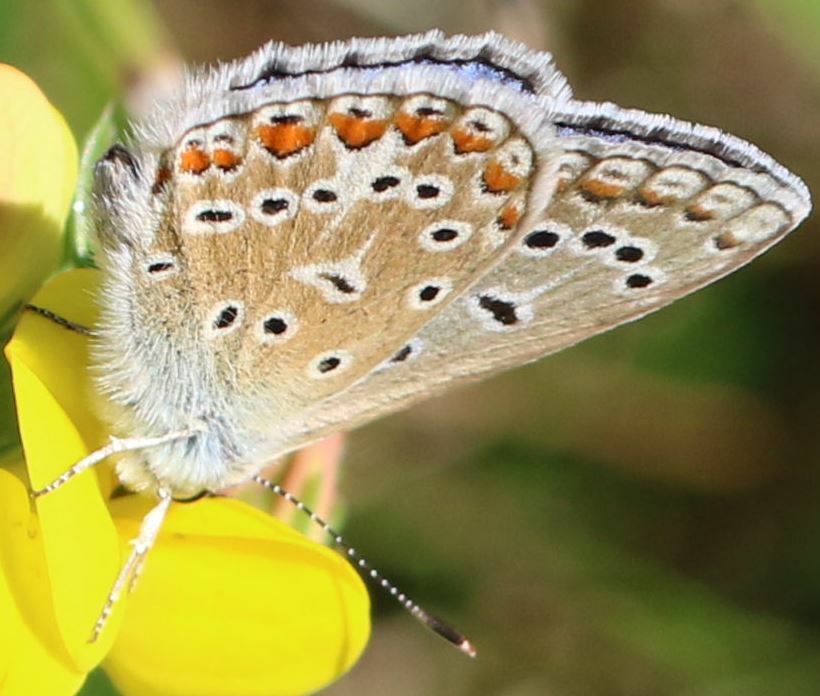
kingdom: Animalia
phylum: Arthropoda
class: Insecta
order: Lepidoptera
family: Lycaenidae
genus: Polyommatus
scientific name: Polyommatus icarus
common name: Common blue
